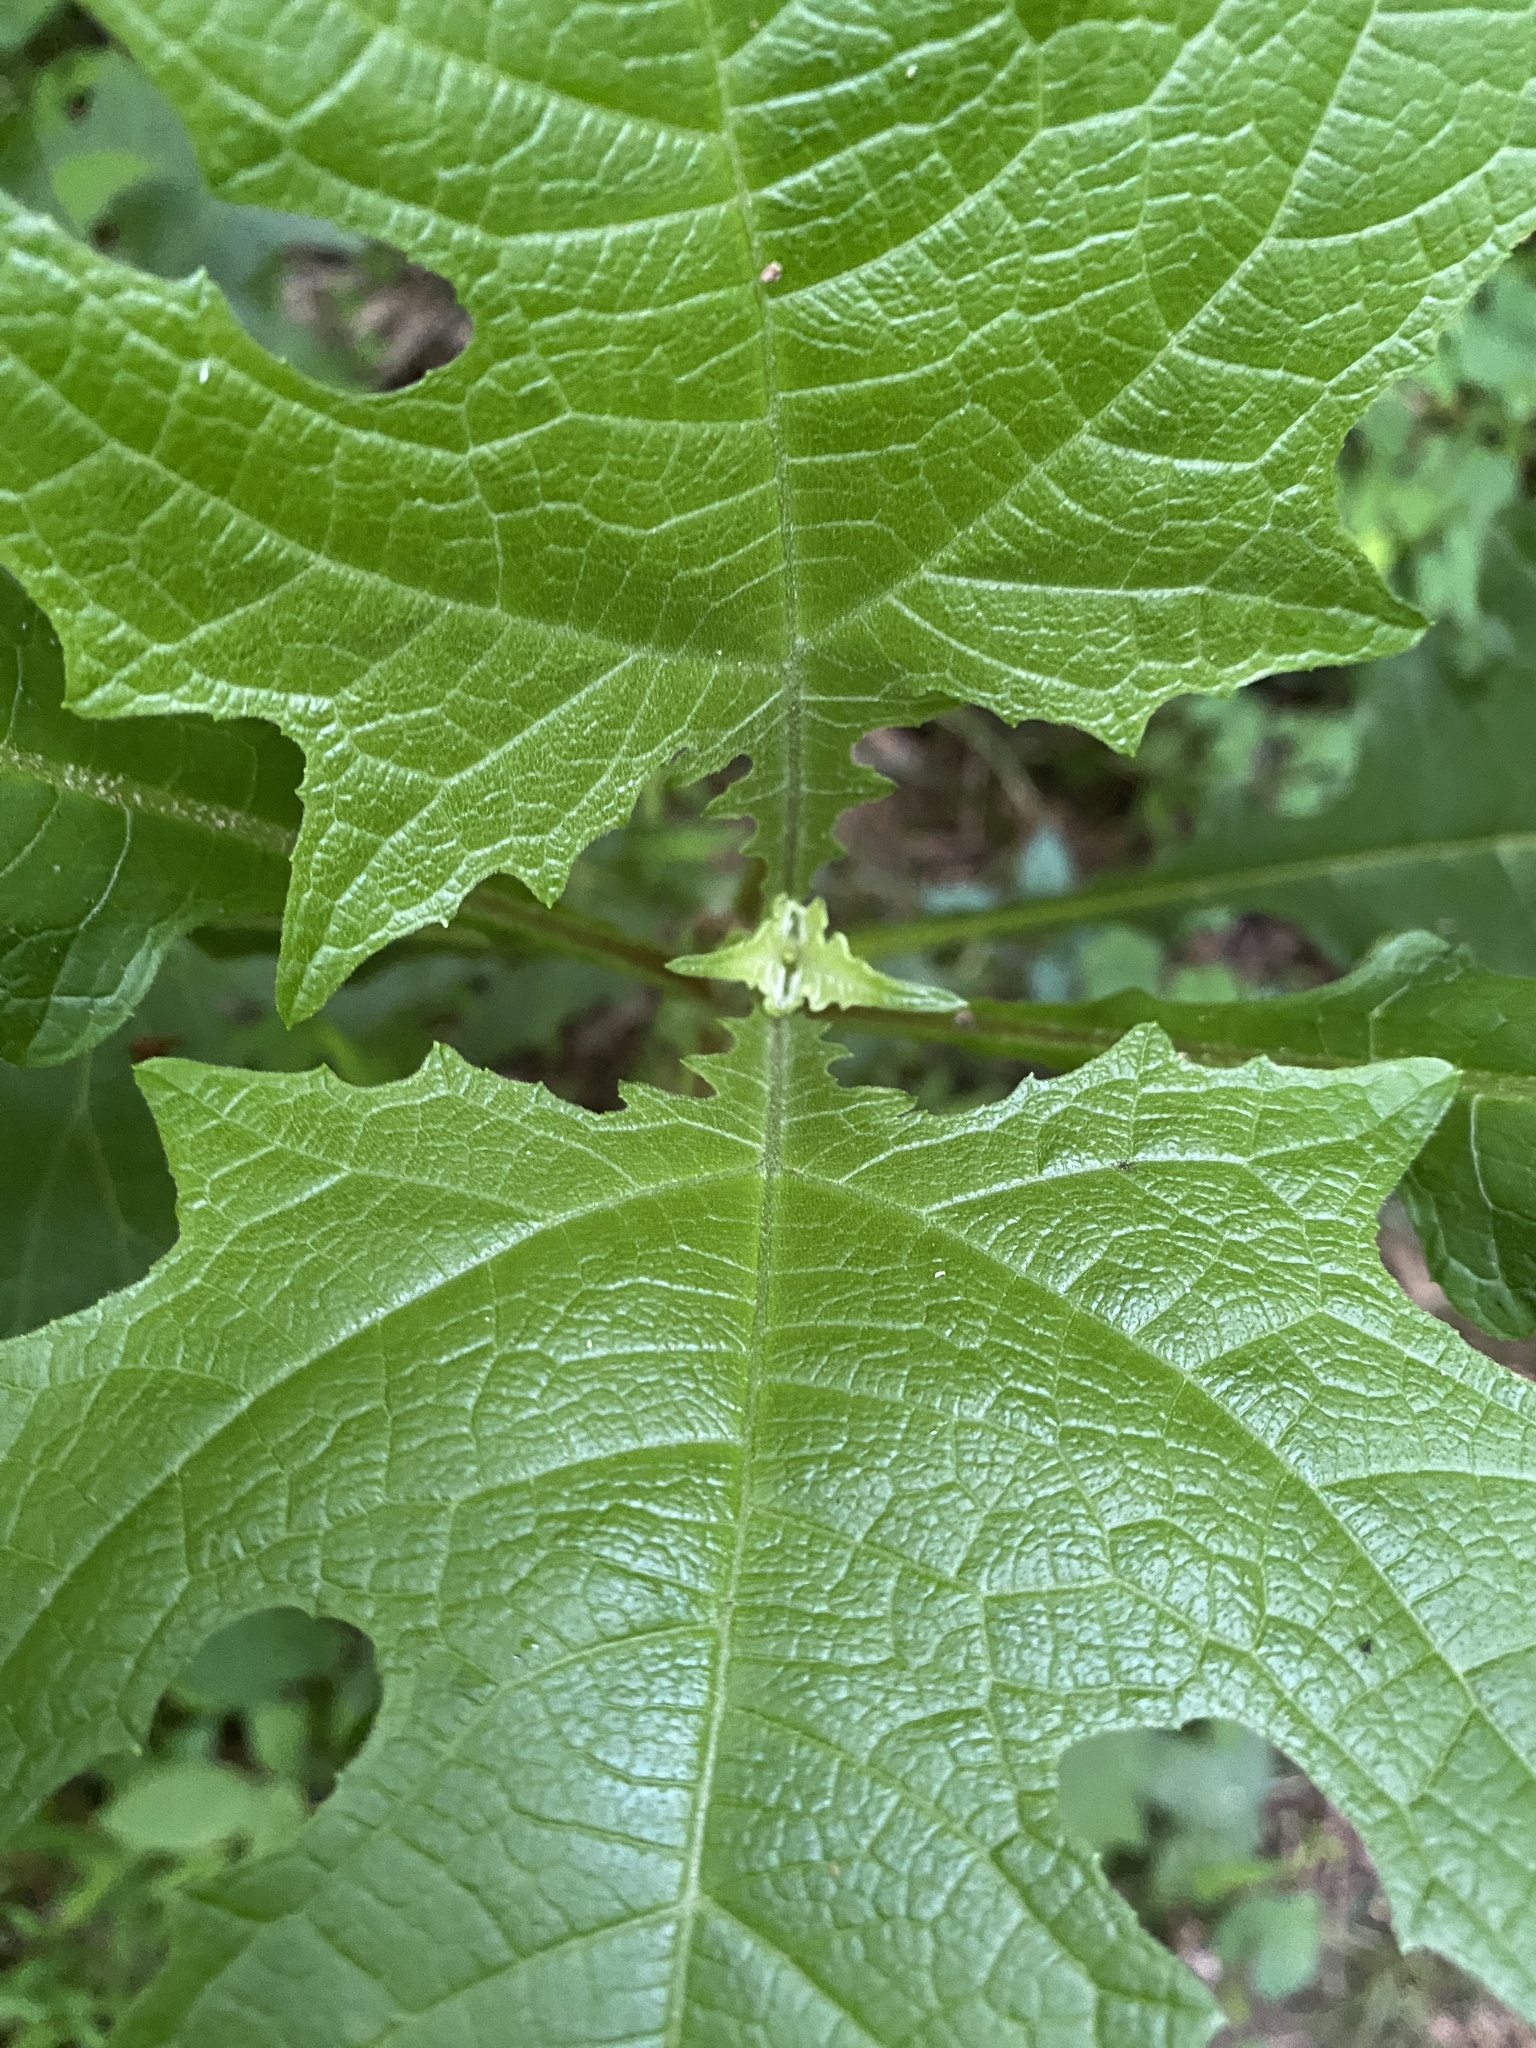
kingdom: Plantae
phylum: Tracheophyta
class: Magnoliopsida
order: Asterales
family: Asteraceae
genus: Smallanthus
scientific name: Smallanthus uvedalia
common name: Bear's-foot
